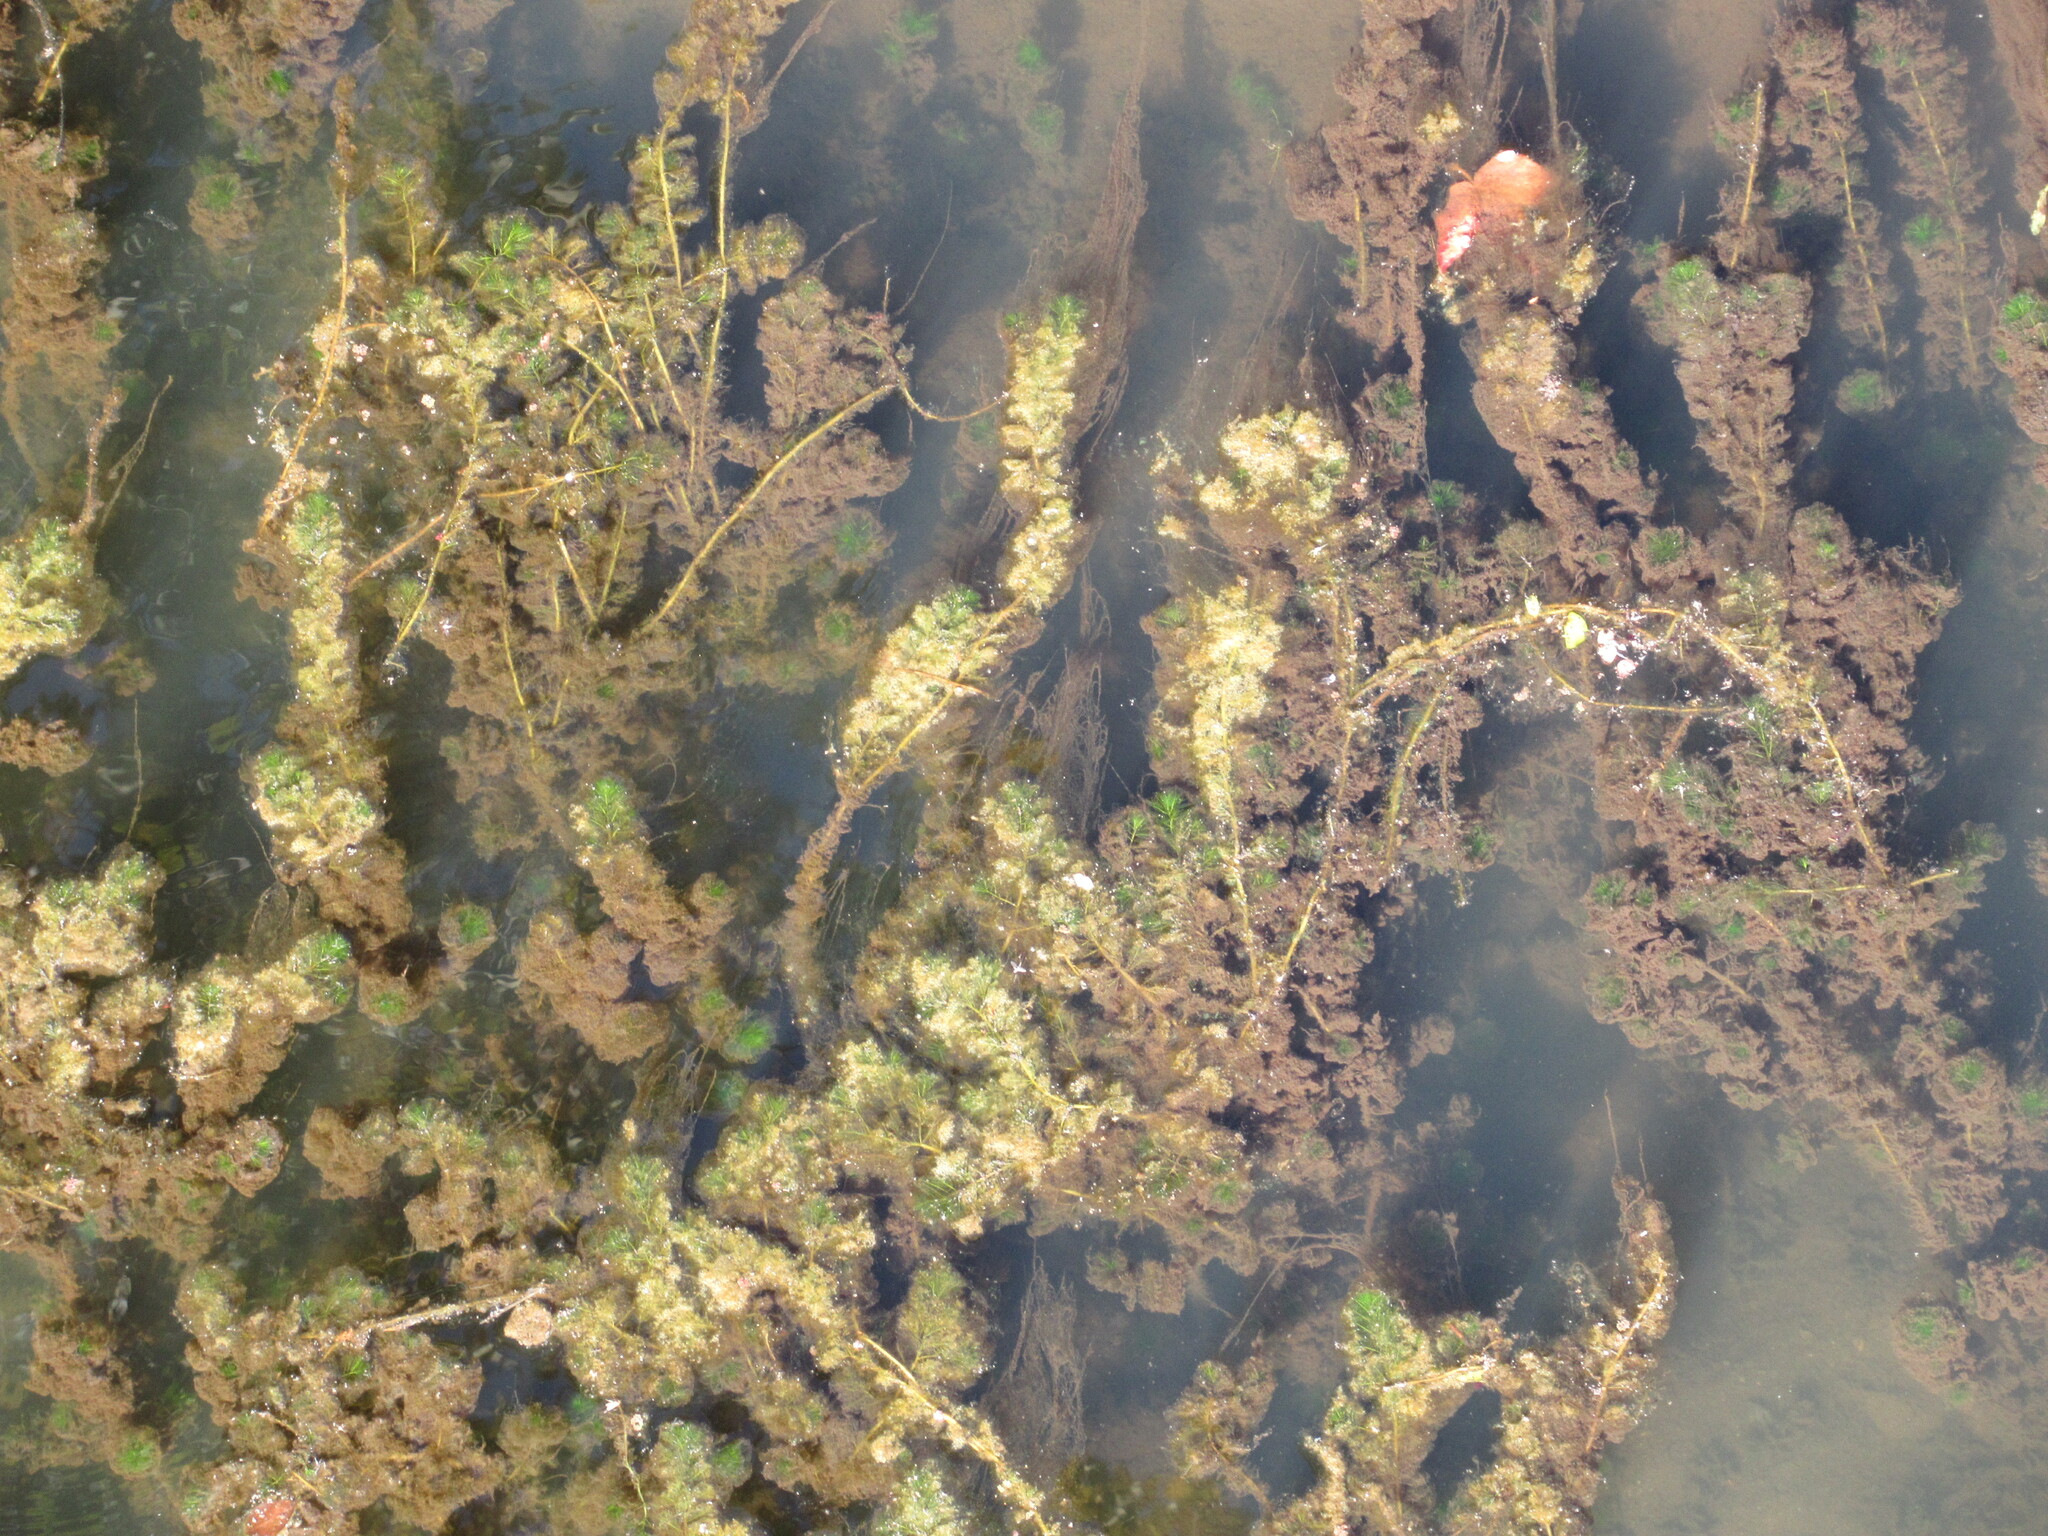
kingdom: Plantae
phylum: Tracheophyta
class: Magnoliopsida
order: Saxifragales
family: Haloragaceae
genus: Myriophyllum
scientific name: Myriophyllum spicatum
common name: Spiked water-milfoil
